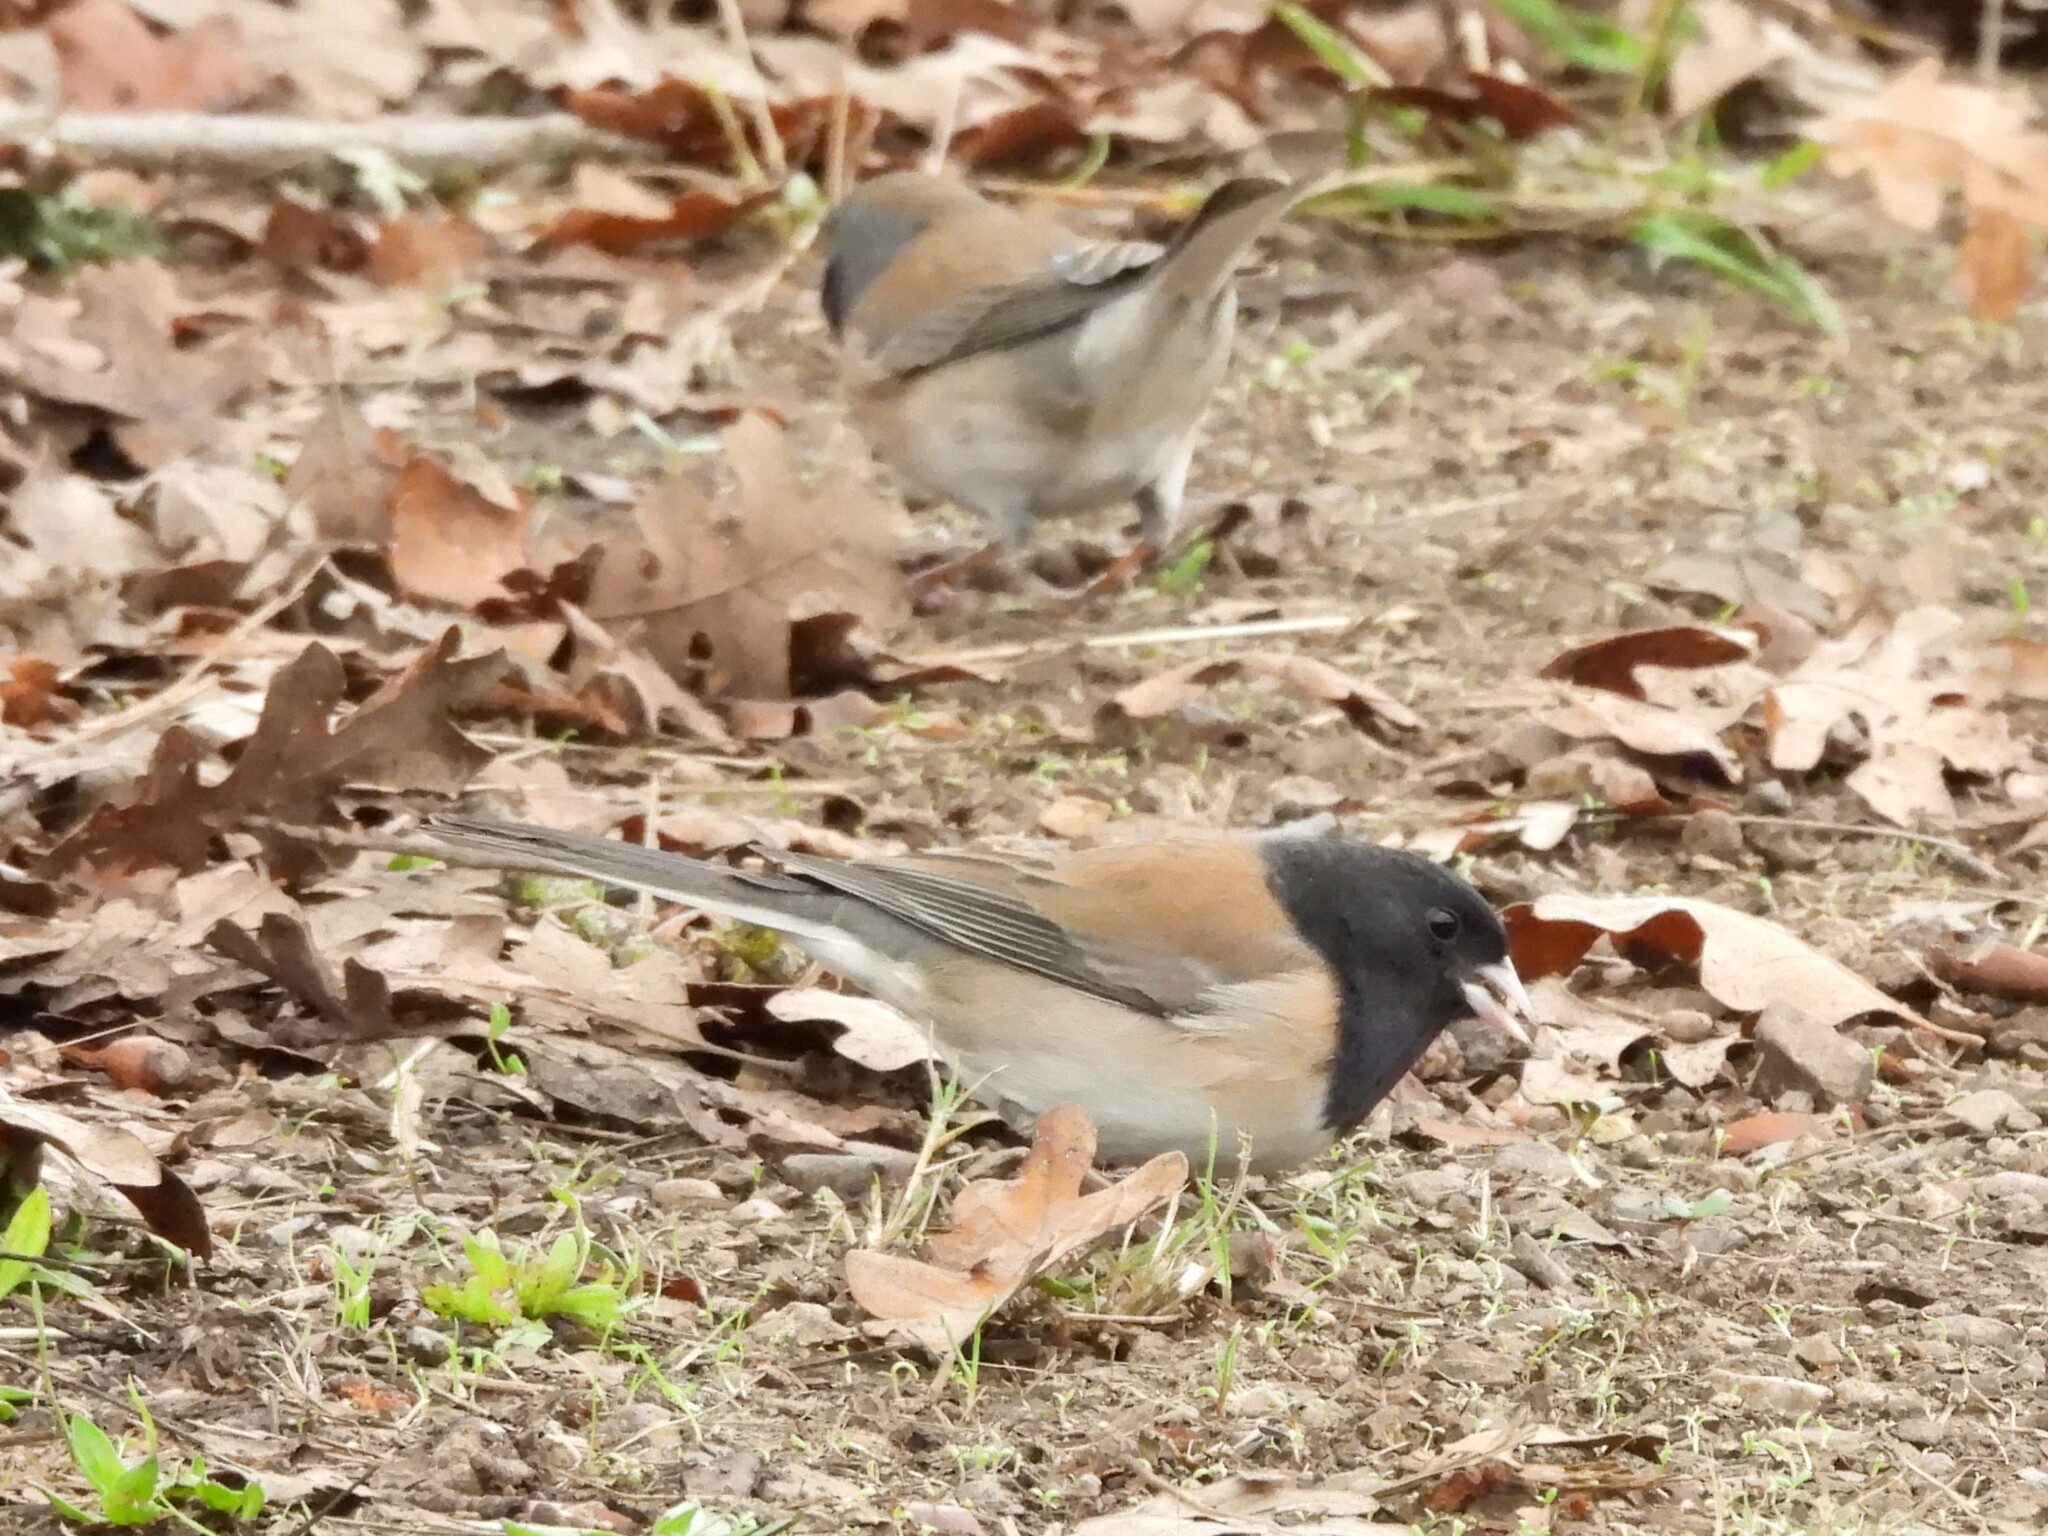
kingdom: Animalia
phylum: Chordata
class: Aves
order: Passeriformes
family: Passerellidae
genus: Junco
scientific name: Junco hyemalis
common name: Dark-eyed junco
